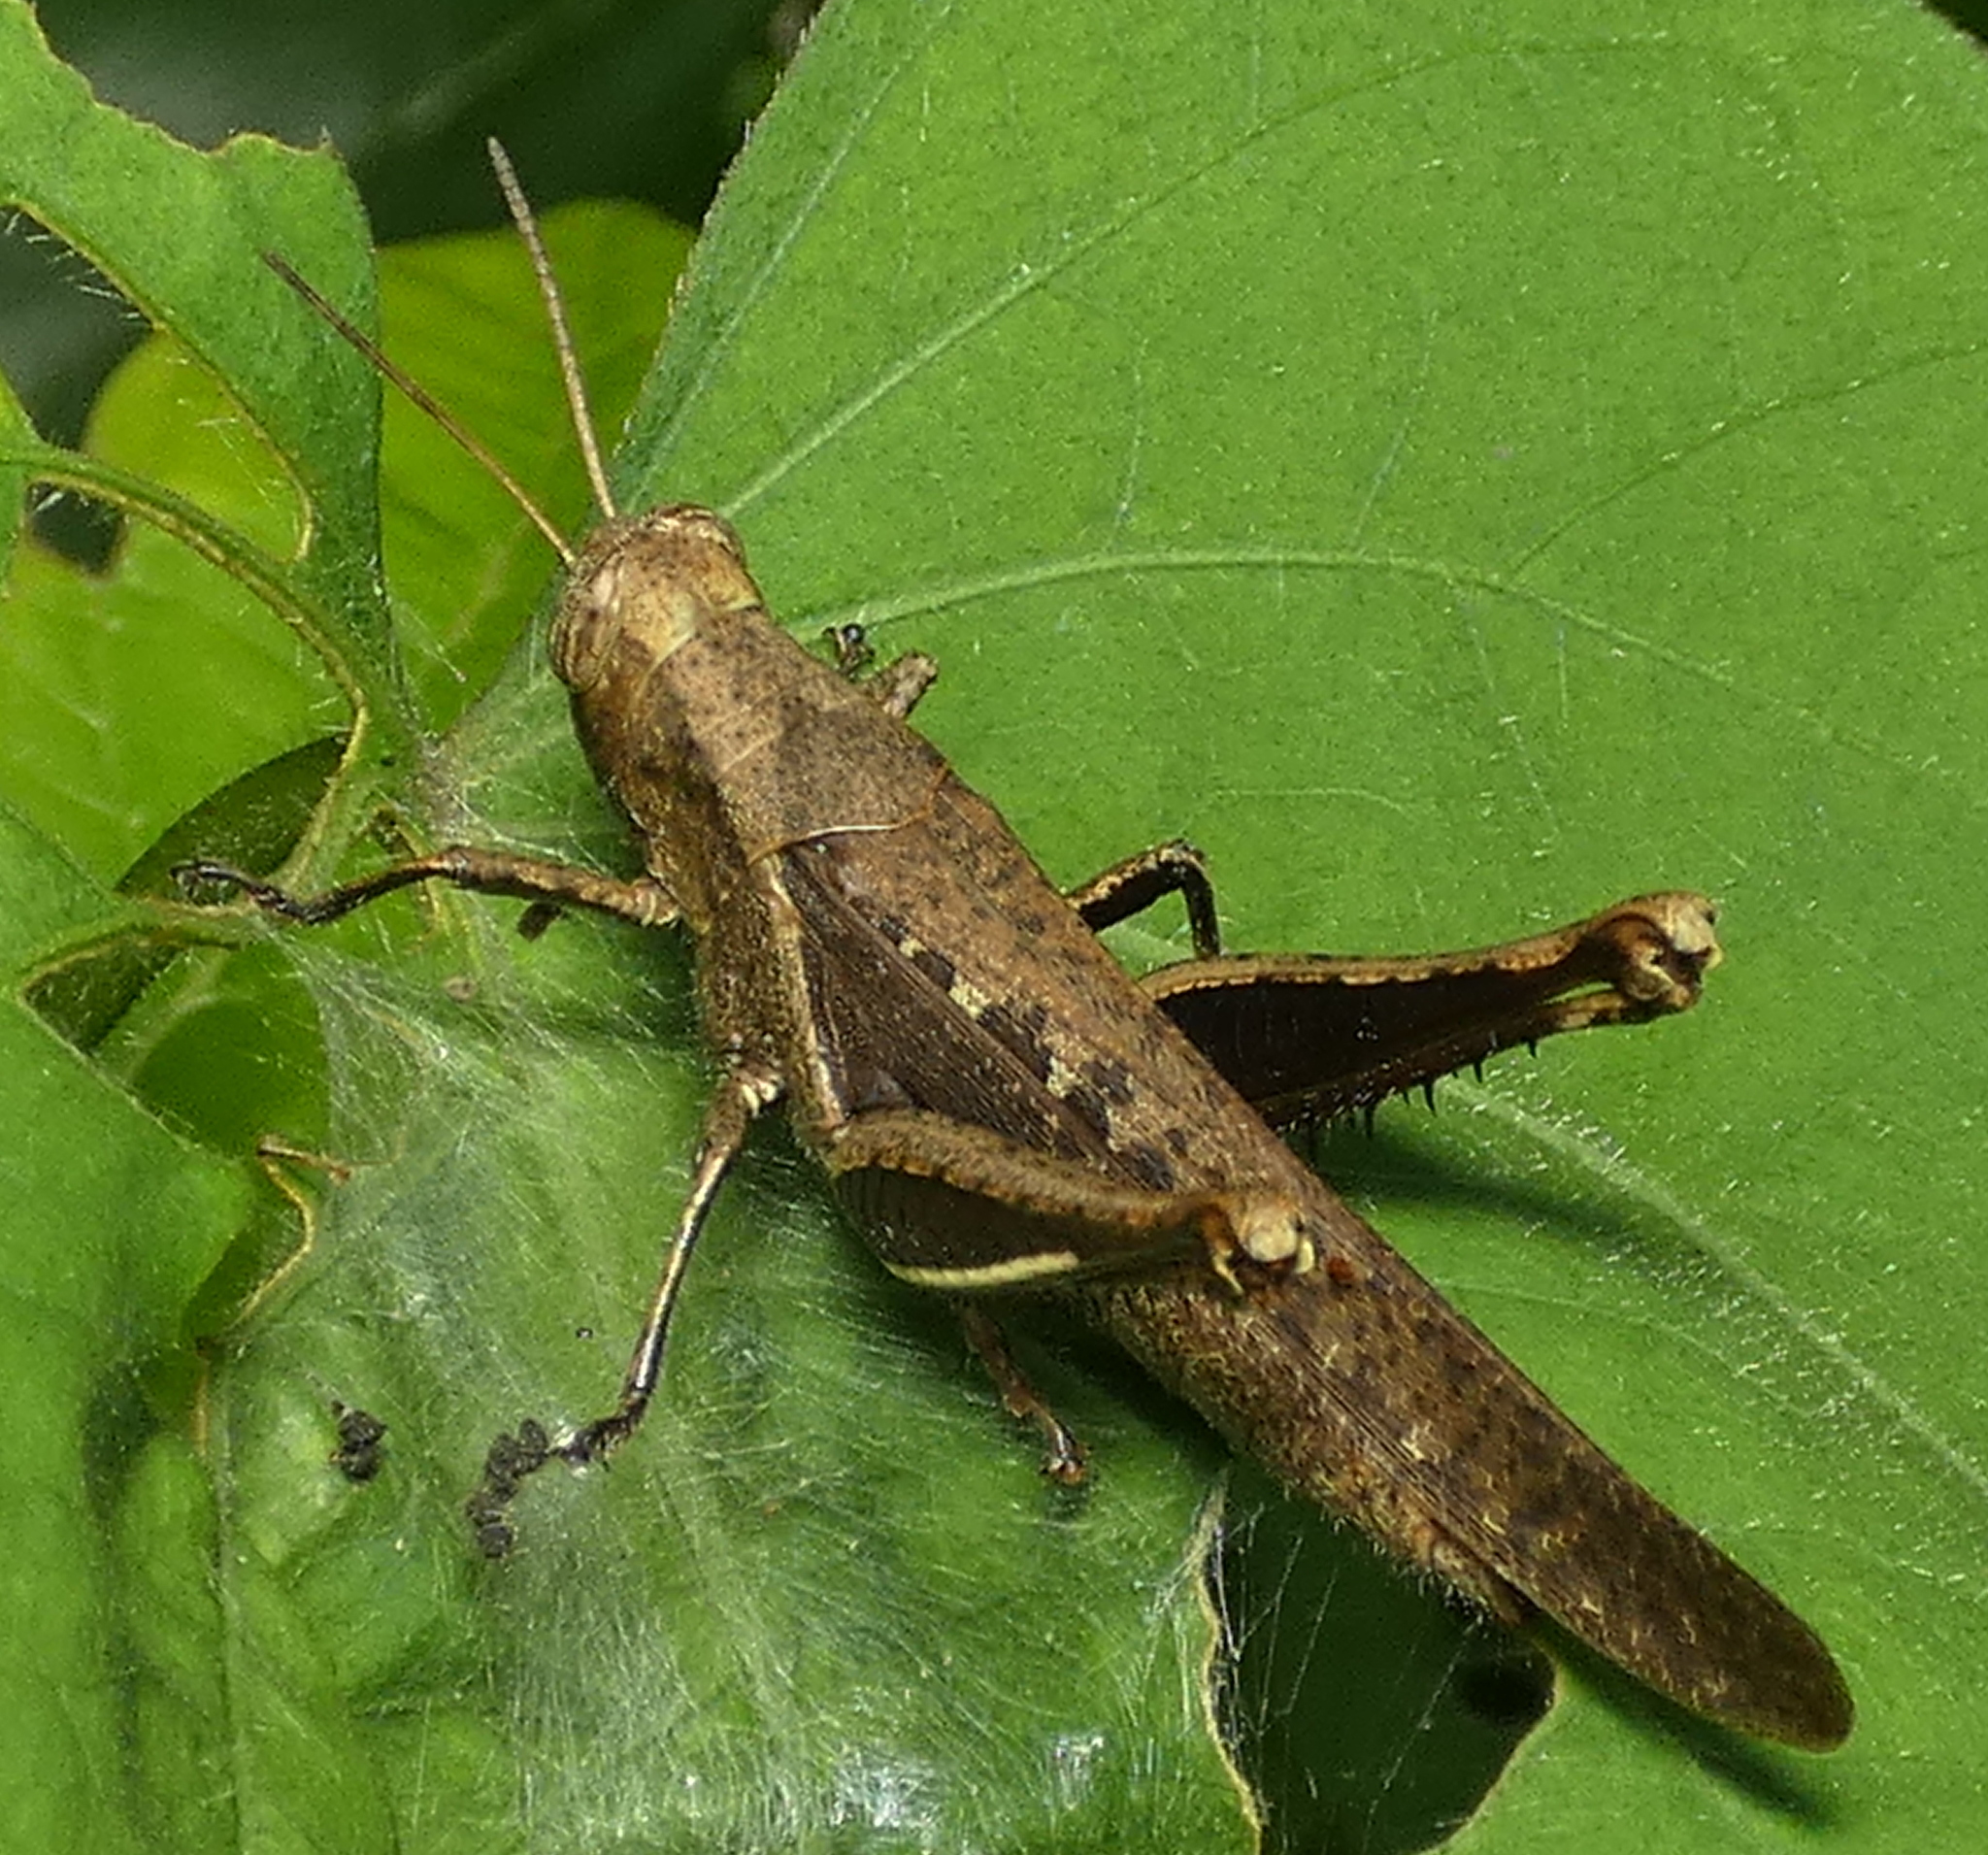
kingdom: Animalia
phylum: Arthropoda
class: Insecta
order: Orthoptera
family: Acrididae
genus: Abracris
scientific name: Abracris flavolineata
